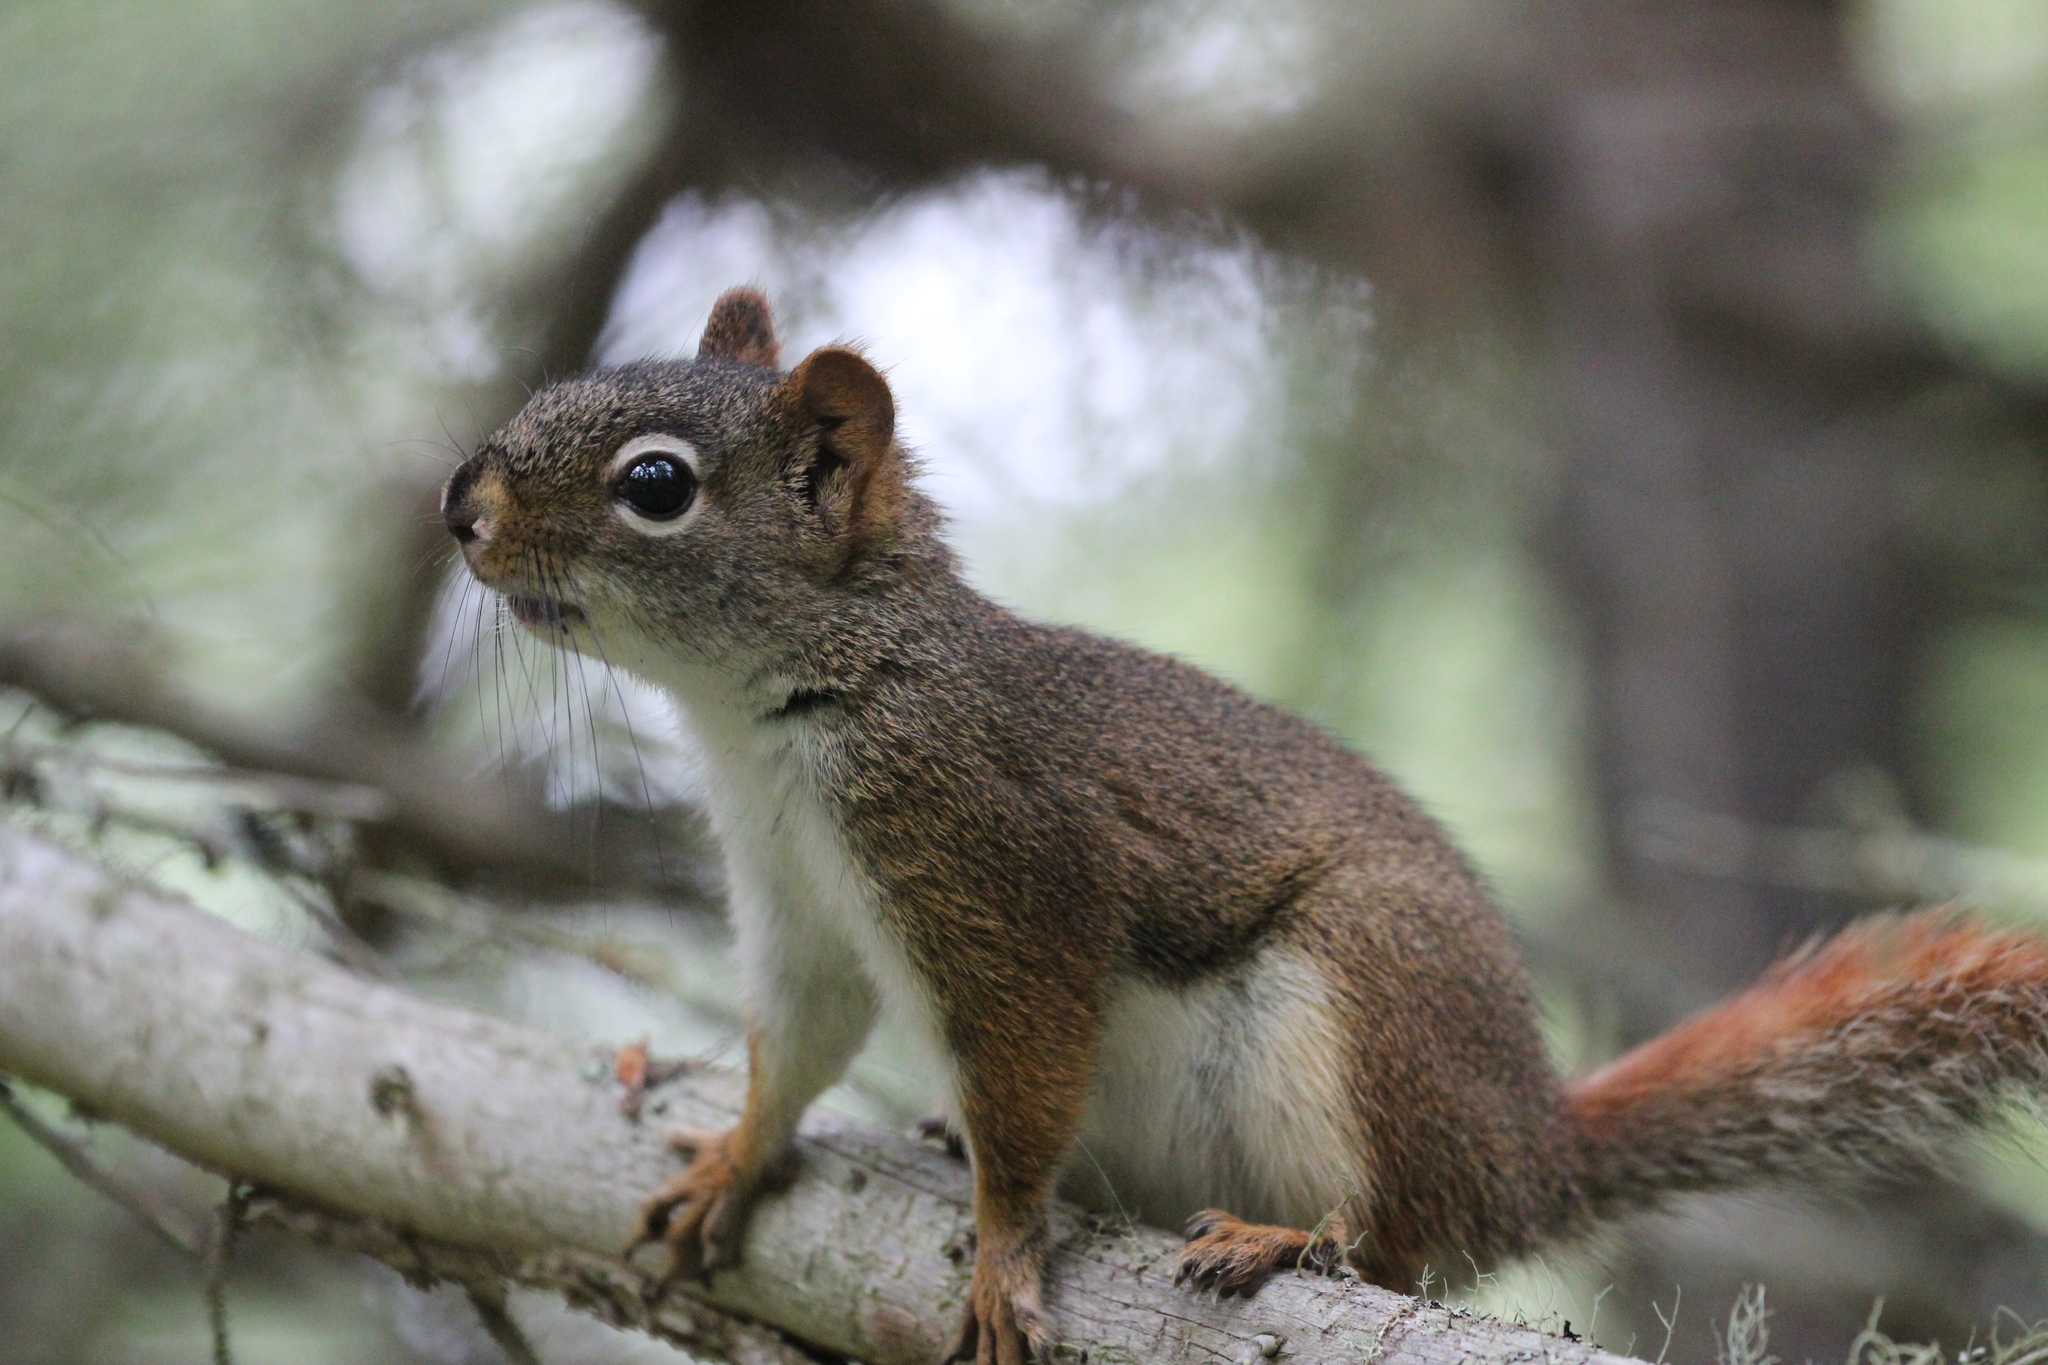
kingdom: Animalia
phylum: Chordata
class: Mammalia
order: Rodentia
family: Sciuridae
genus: Tamiasciurus
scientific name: Tamiasciurus hudsonicus
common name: Red squirrel
